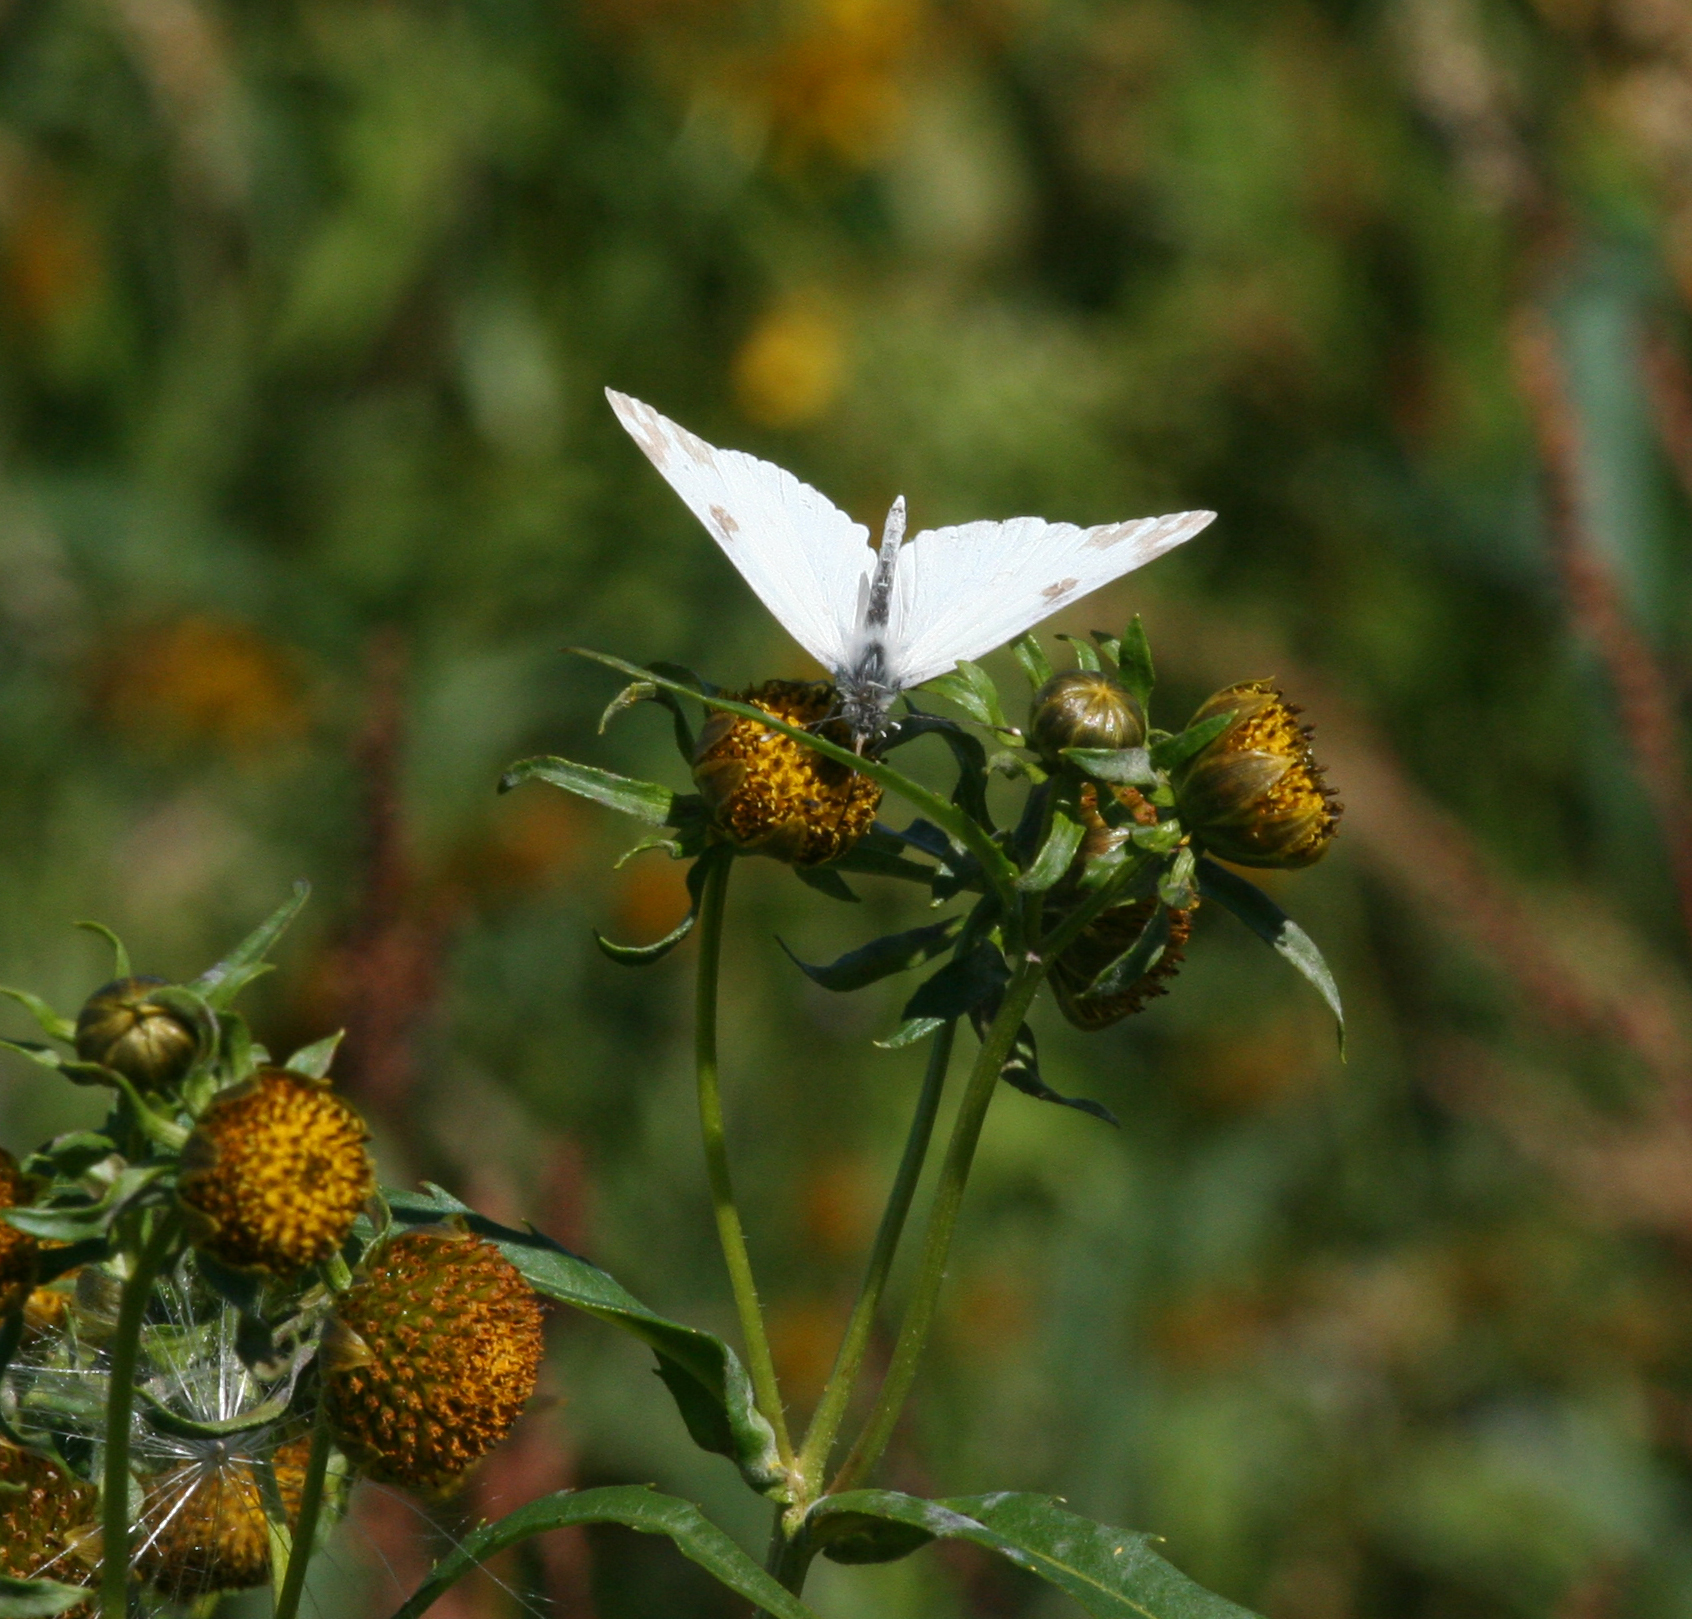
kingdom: Animalia
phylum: Arthropoda
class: Insecta
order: Lepidoptera
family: Pieridae
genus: Pontia
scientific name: Pontia edusa
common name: Eastern bath white
